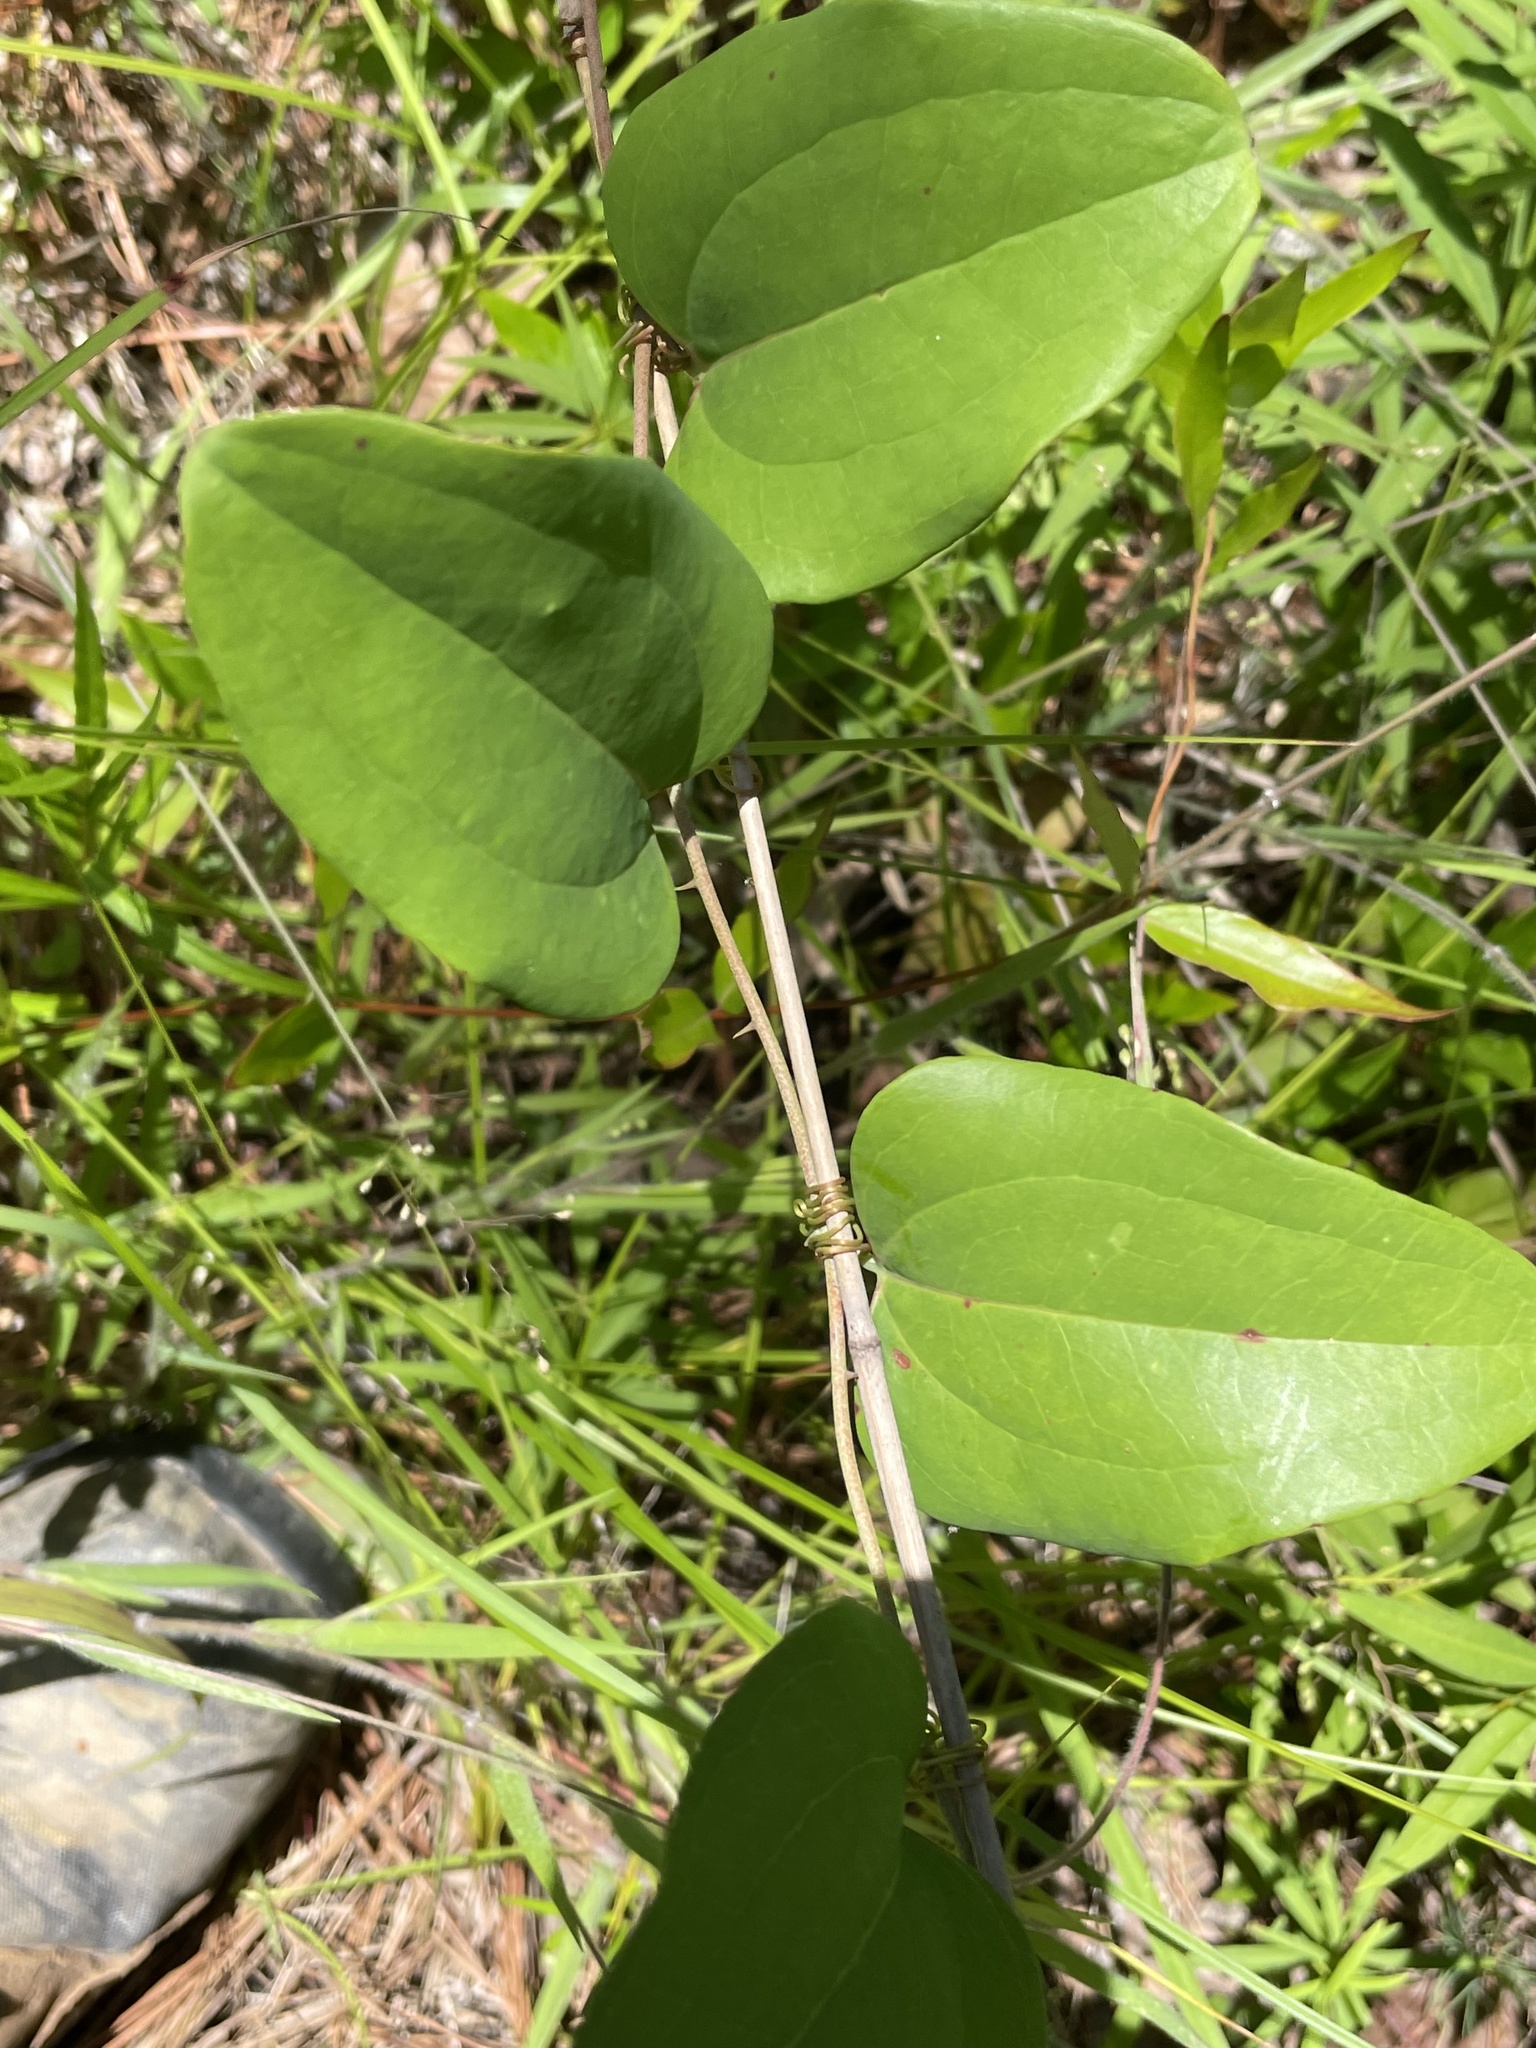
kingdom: Plantae
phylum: Tracheophyta
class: Liliopsida
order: Liliales
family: Smilacaceae
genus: Smilax
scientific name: Smilax glauca
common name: Cat greenbrier
